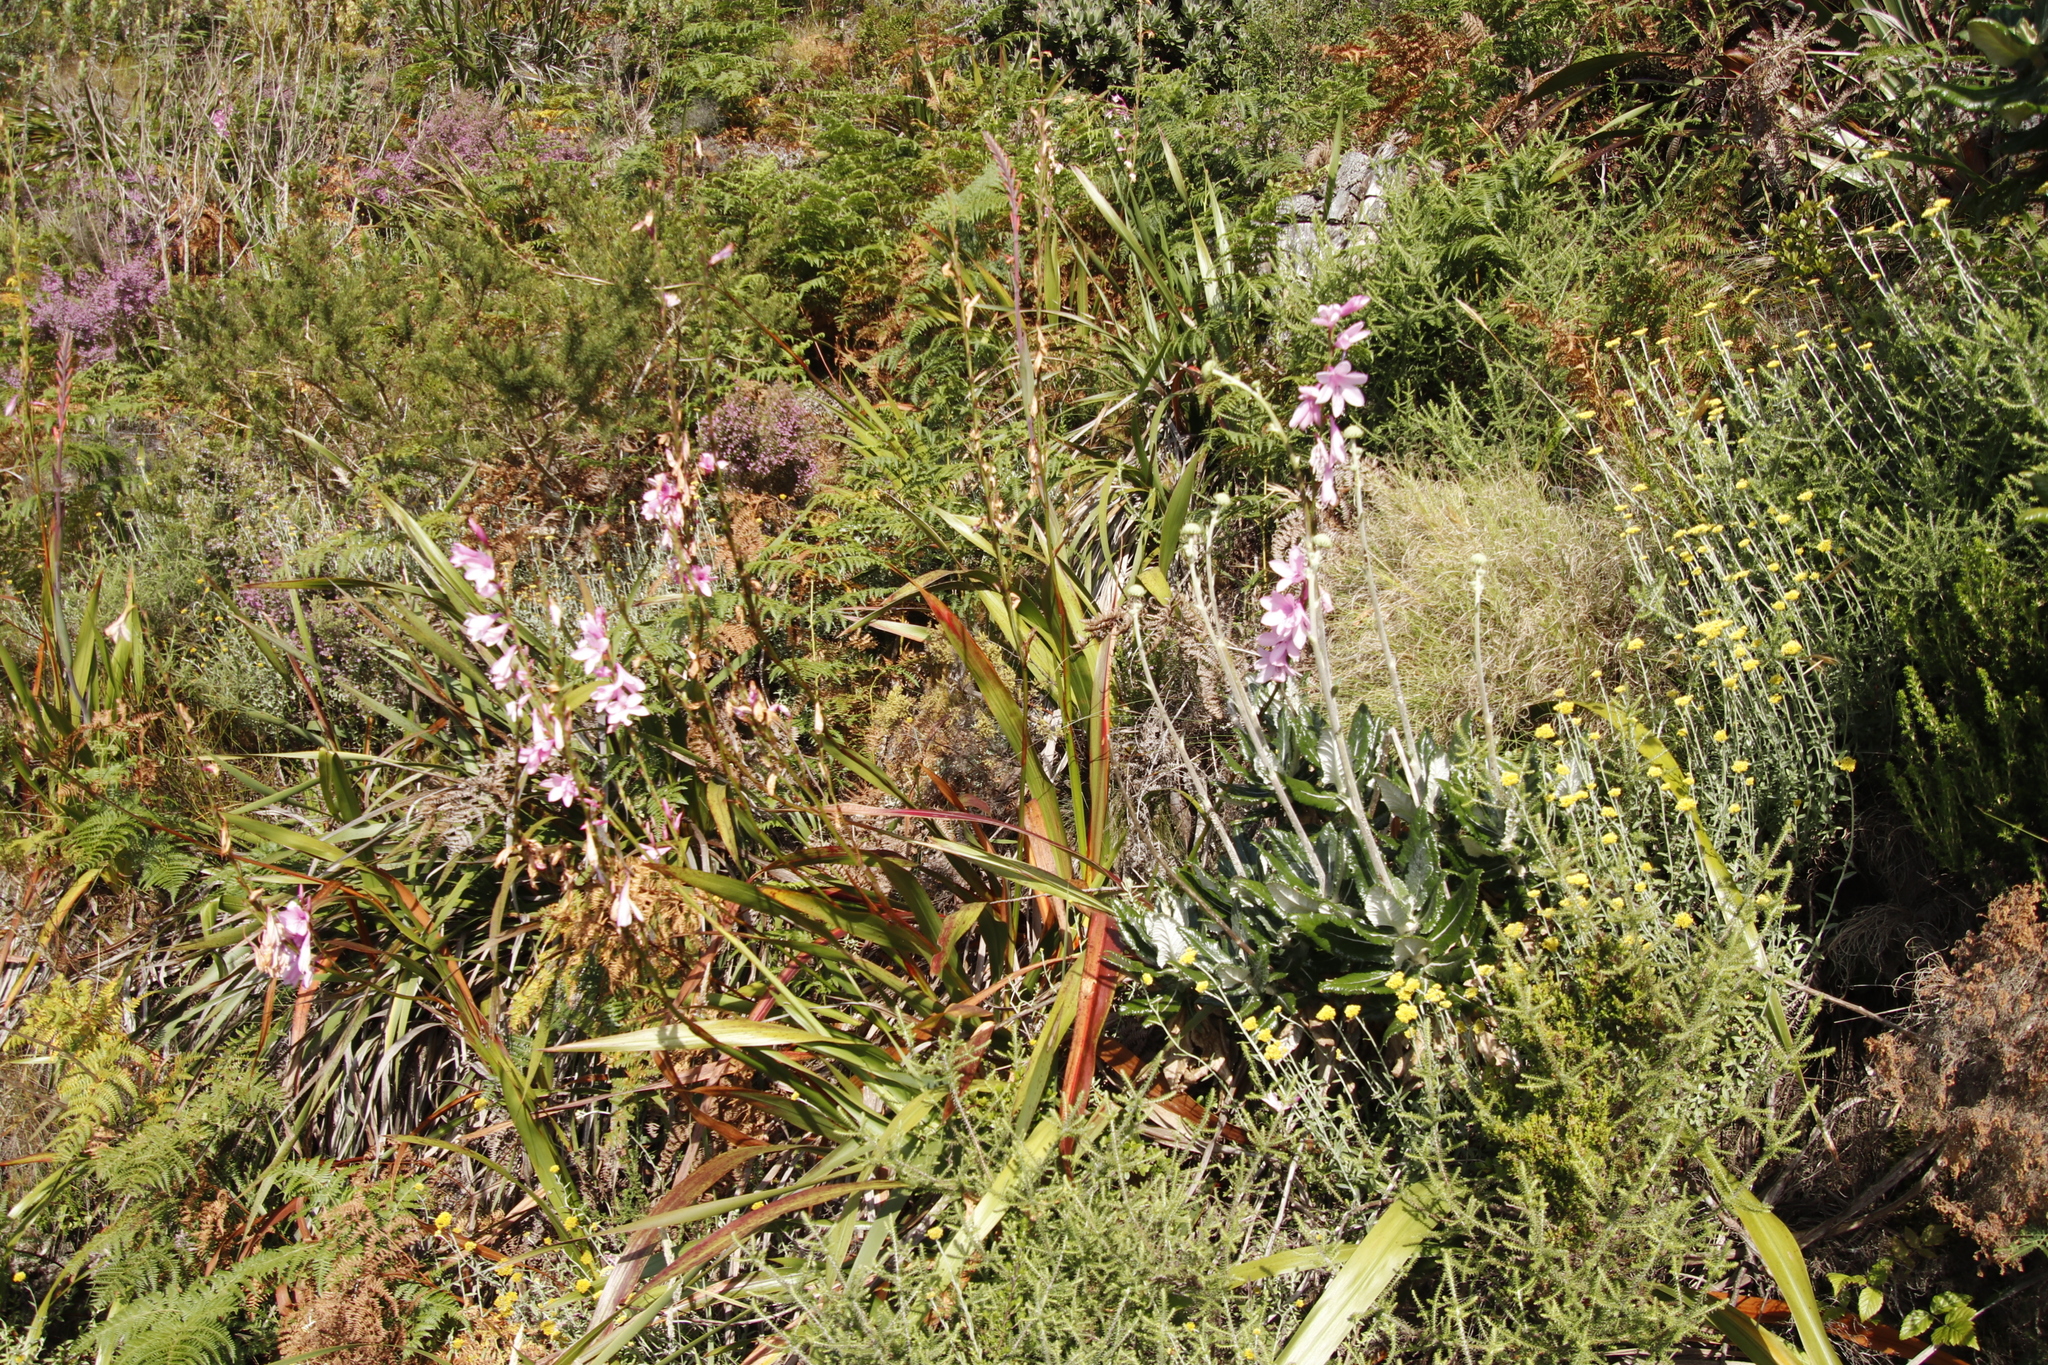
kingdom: Plantae
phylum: Tracheophyta
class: Liliopsida
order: Asparagales
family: Iridaceae
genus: Watsonia
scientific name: Watsonia borbonica
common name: Bugle-lily
